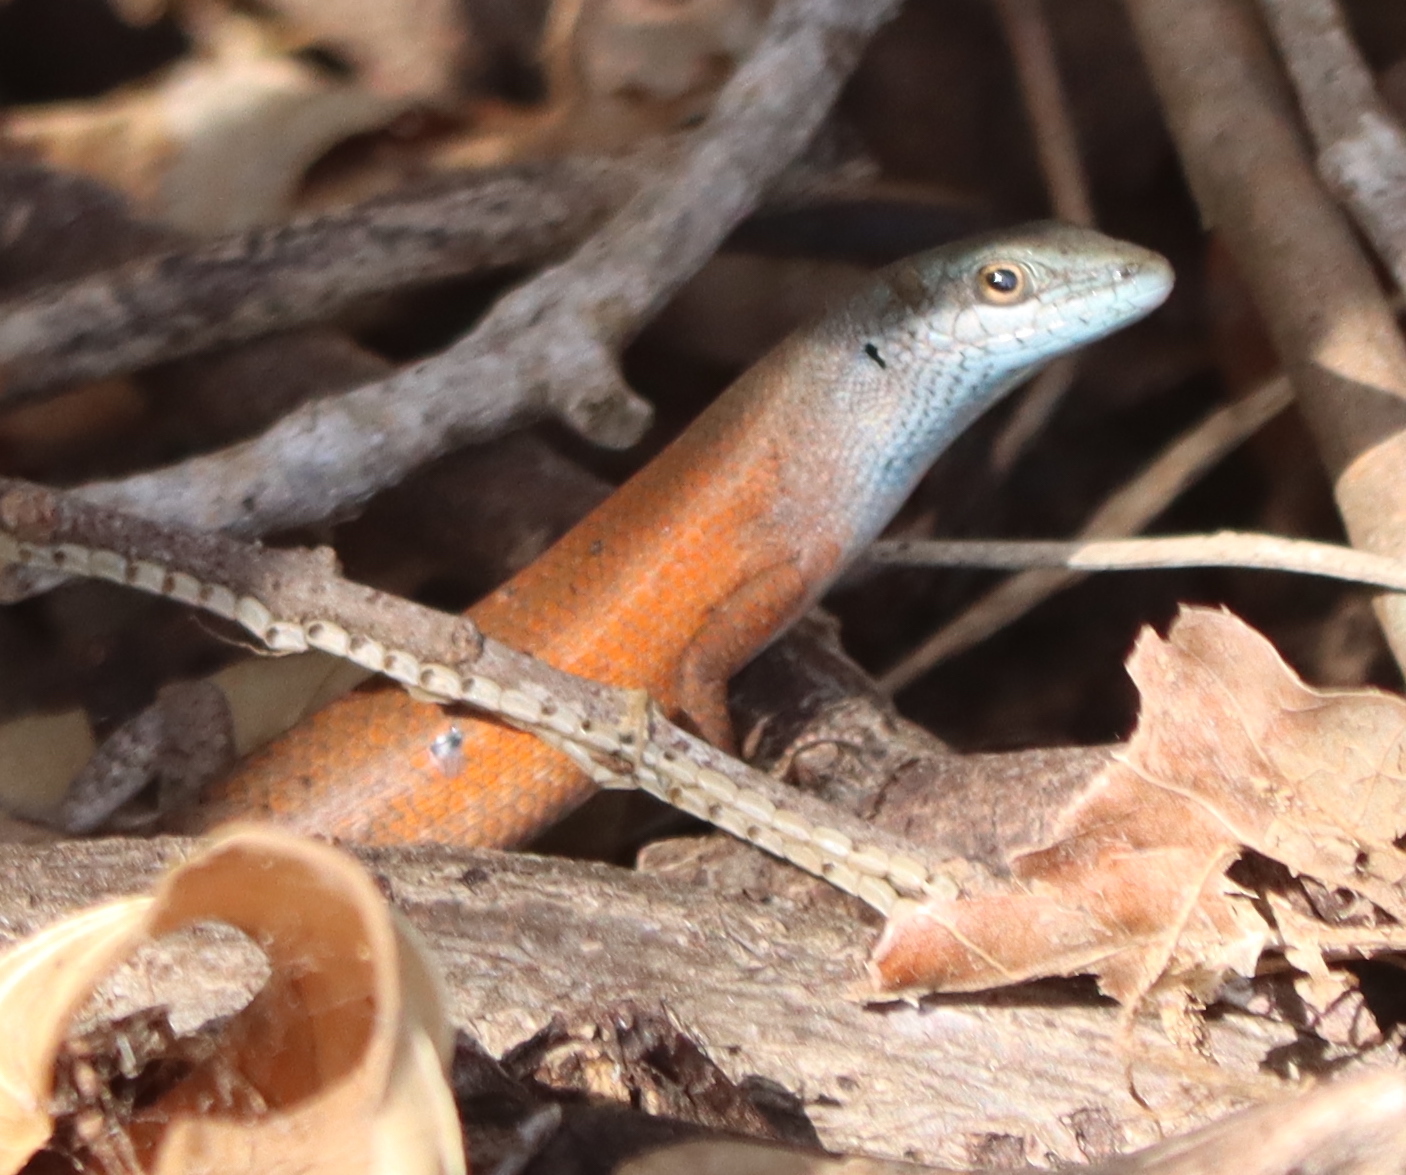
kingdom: Animalia
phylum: Chordata
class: Squamata
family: Scincidae
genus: Carlia
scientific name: Carlia rubigo
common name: Orange-flanked rainbow-skink
